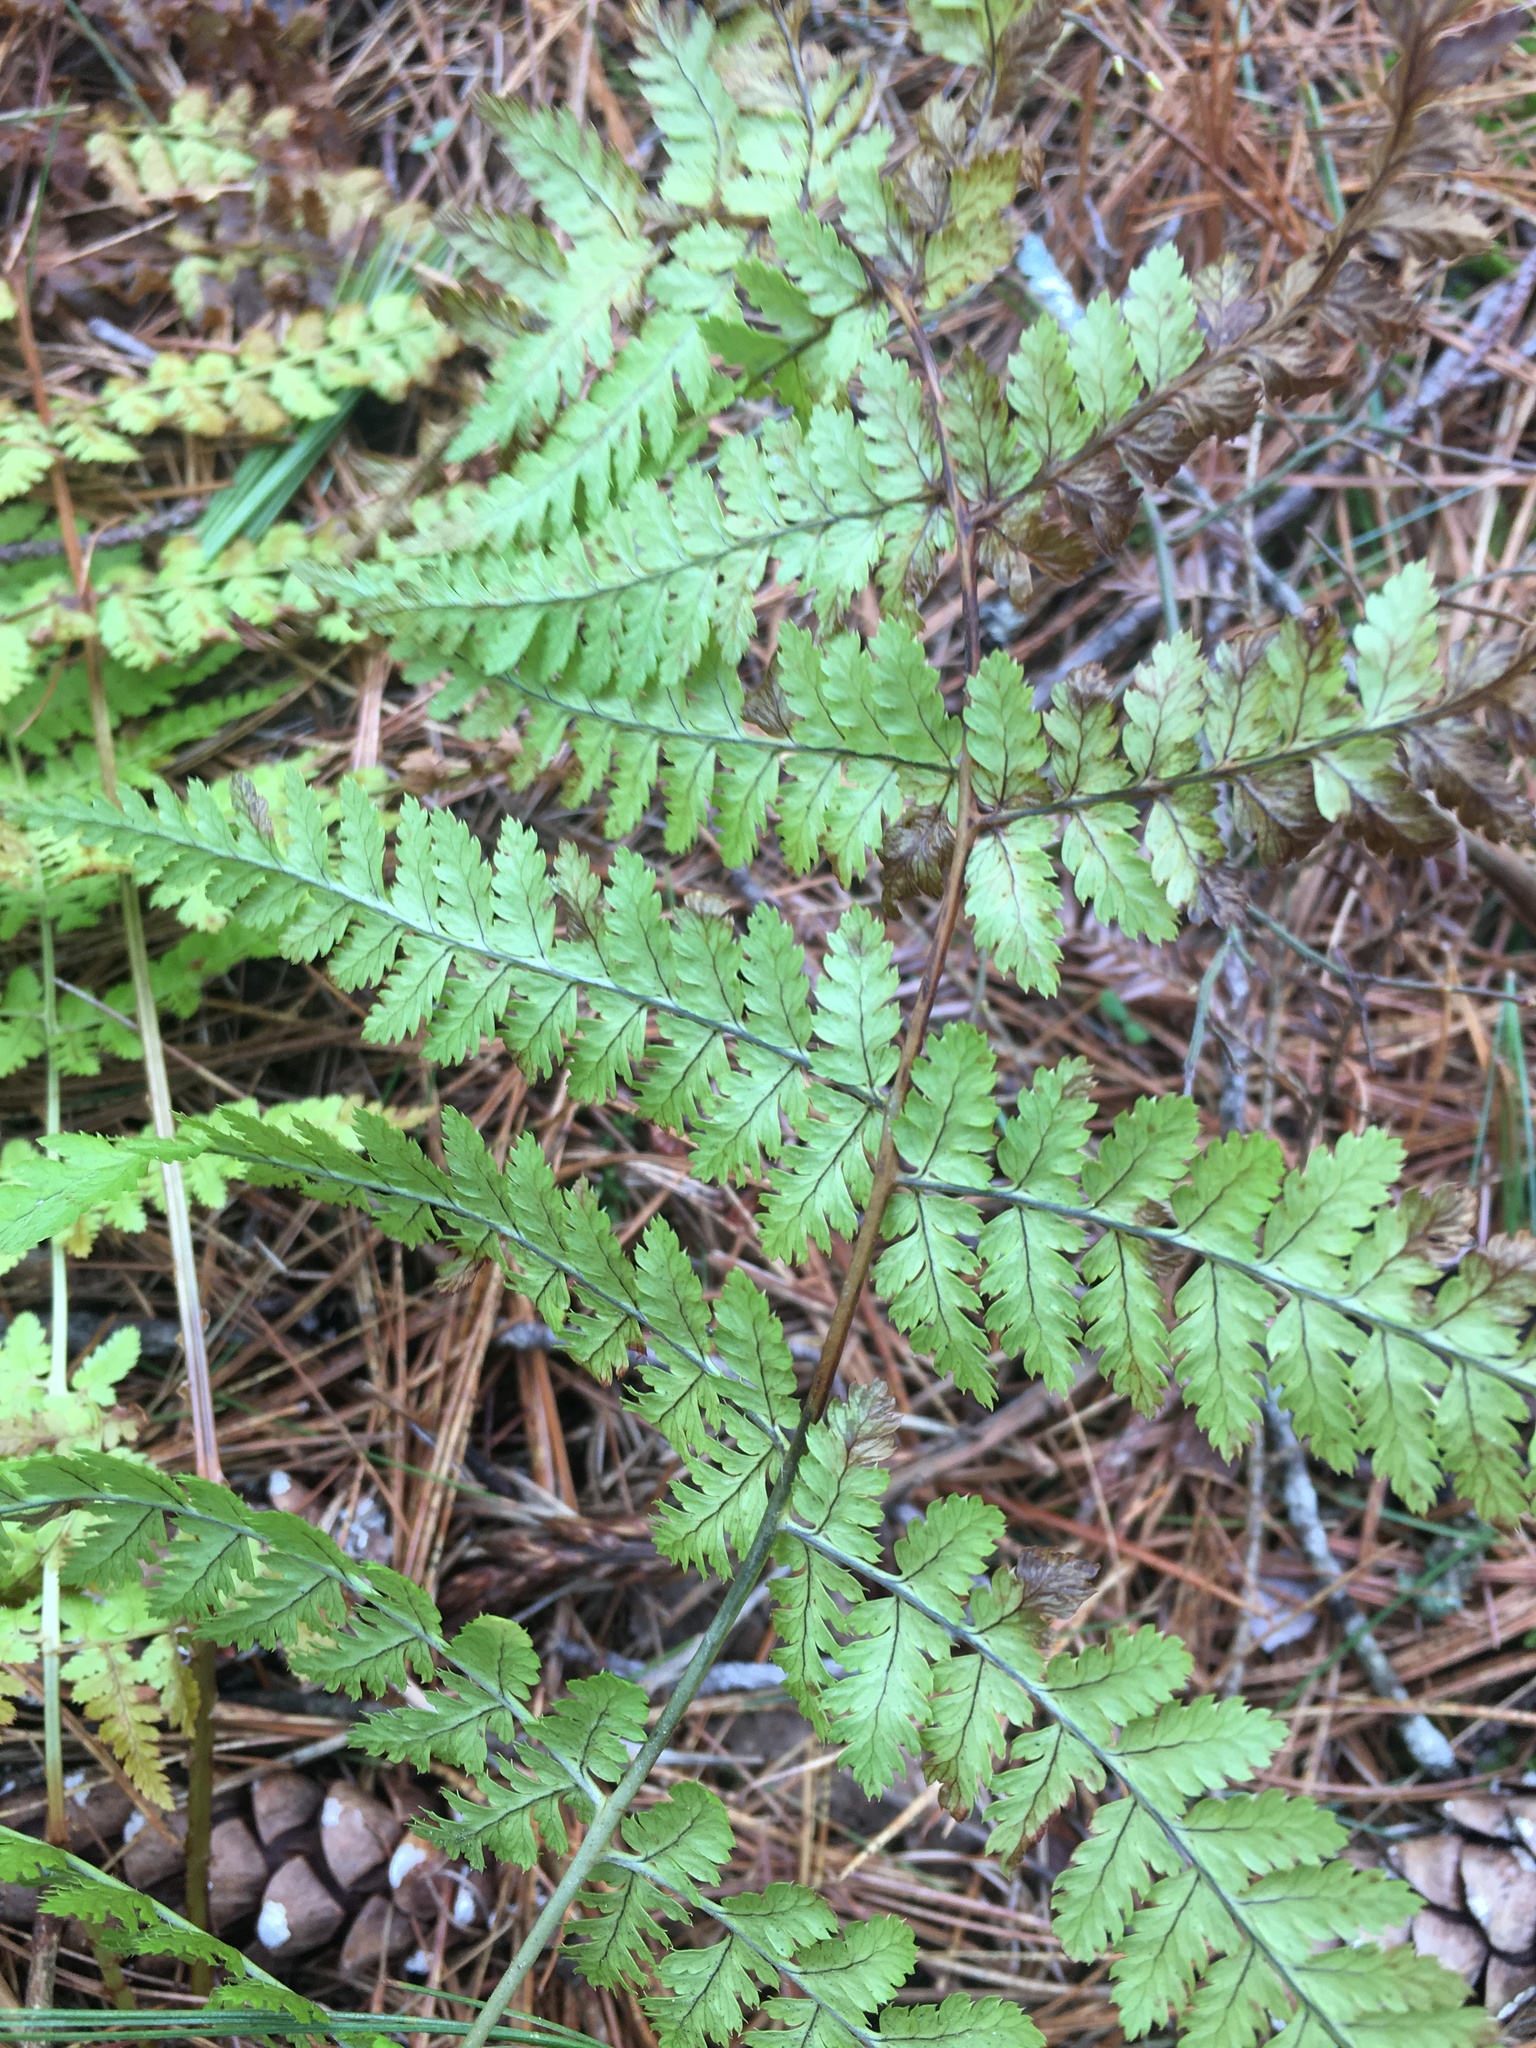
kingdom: Plantae
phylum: Tracheophyta
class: Polypodiopsida
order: Polypodiales
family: Dryopteridaceae
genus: Dryopteris
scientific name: Dryopteris intermedia
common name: Evergreen wood fern
